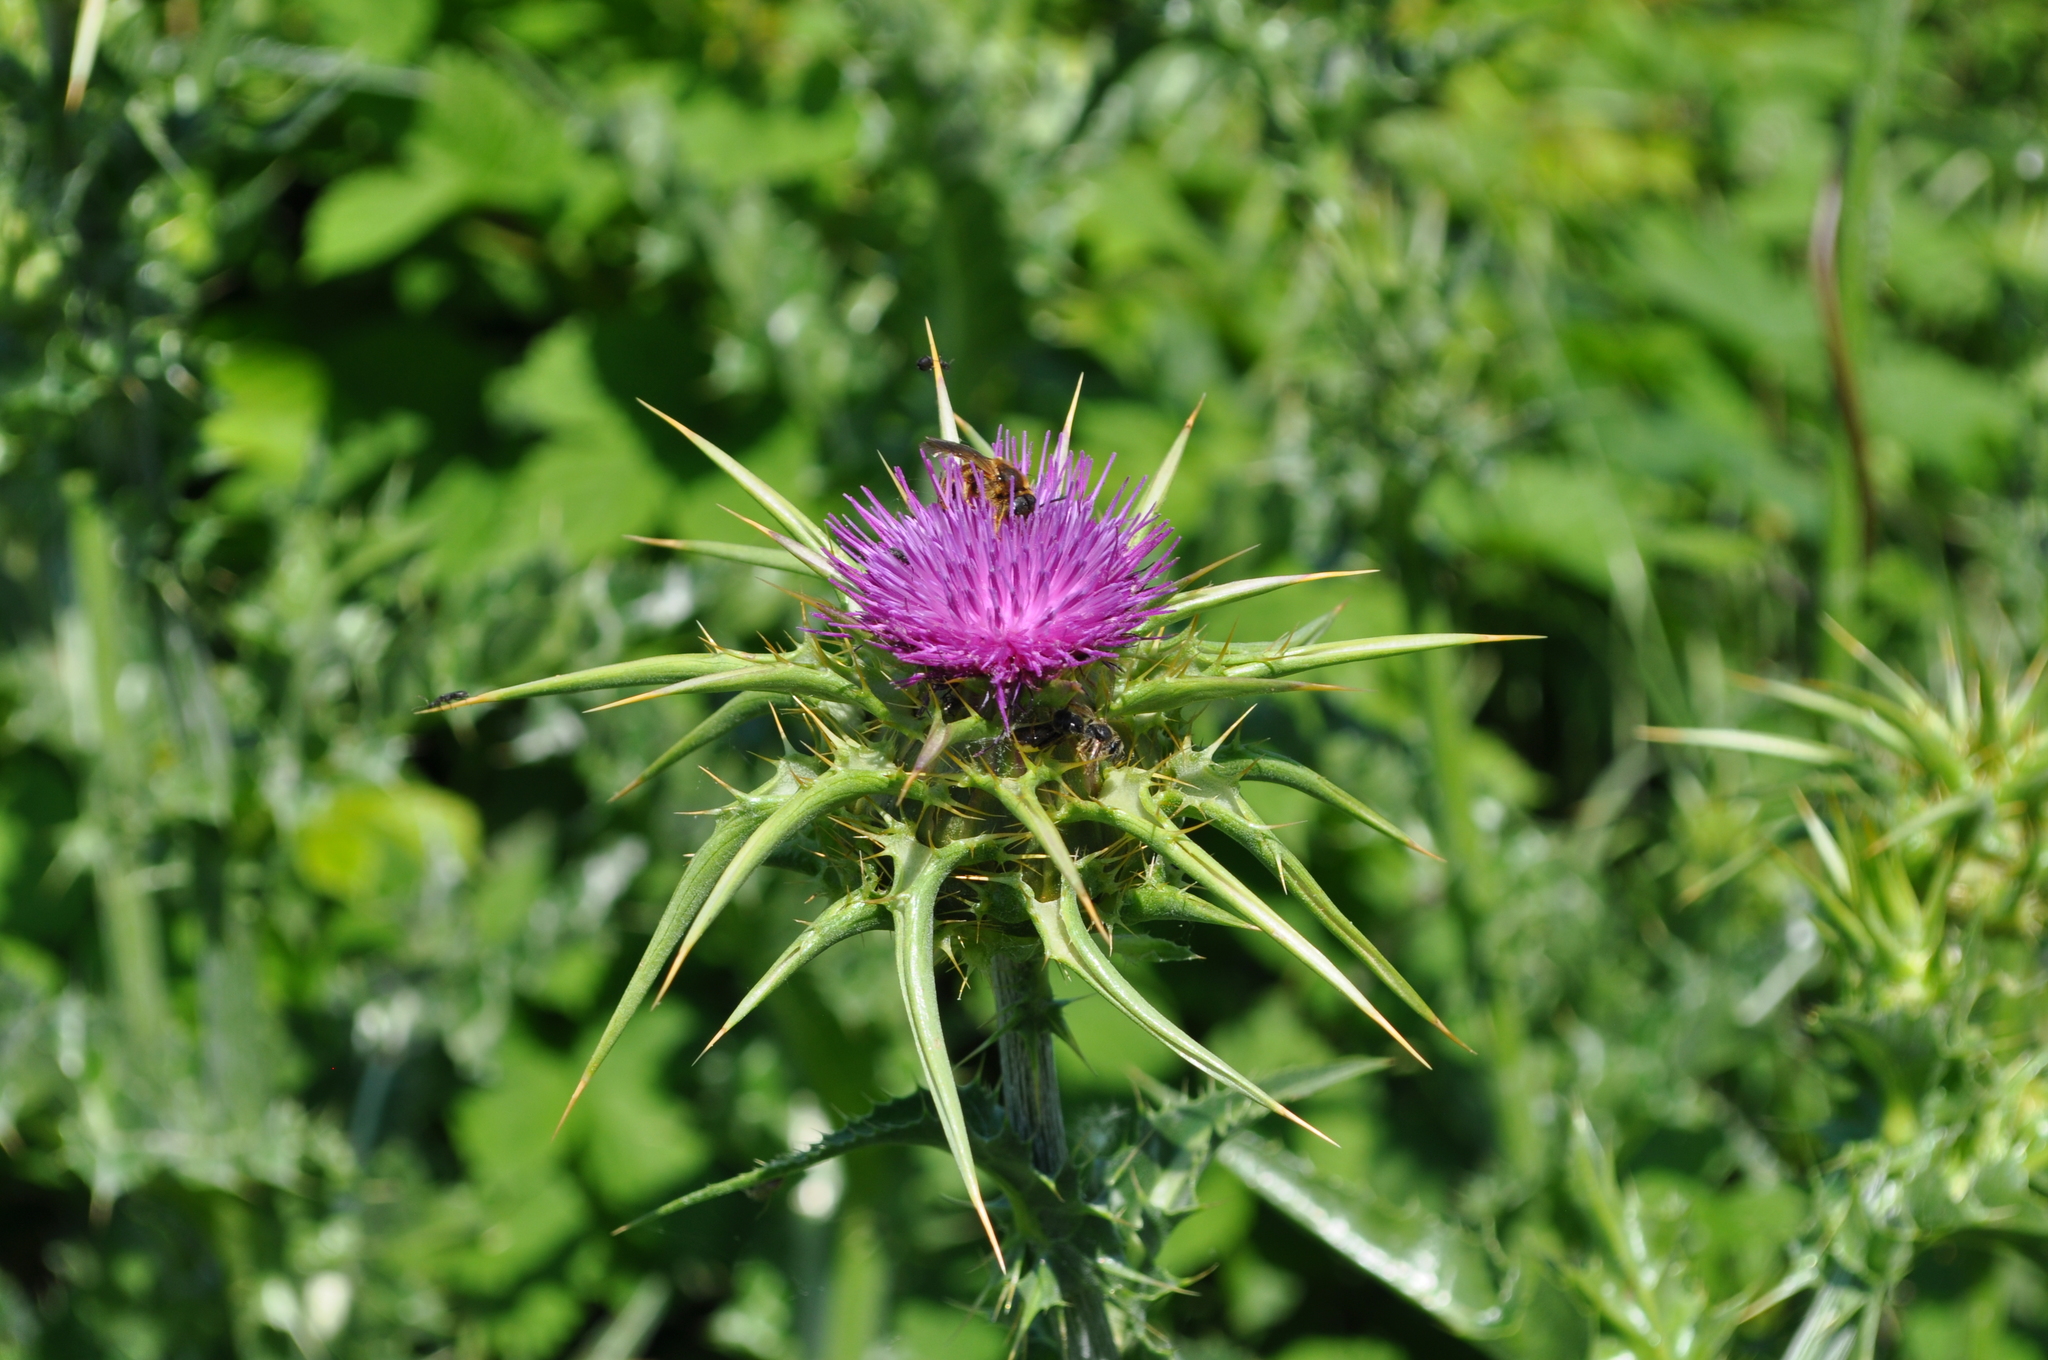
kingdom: Plantae
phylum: Tracheophyta
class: Magnoliopsida
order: Asterales
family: Asteraceae
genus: Silybum
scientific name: Silybum marianum
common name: Milk thistle
